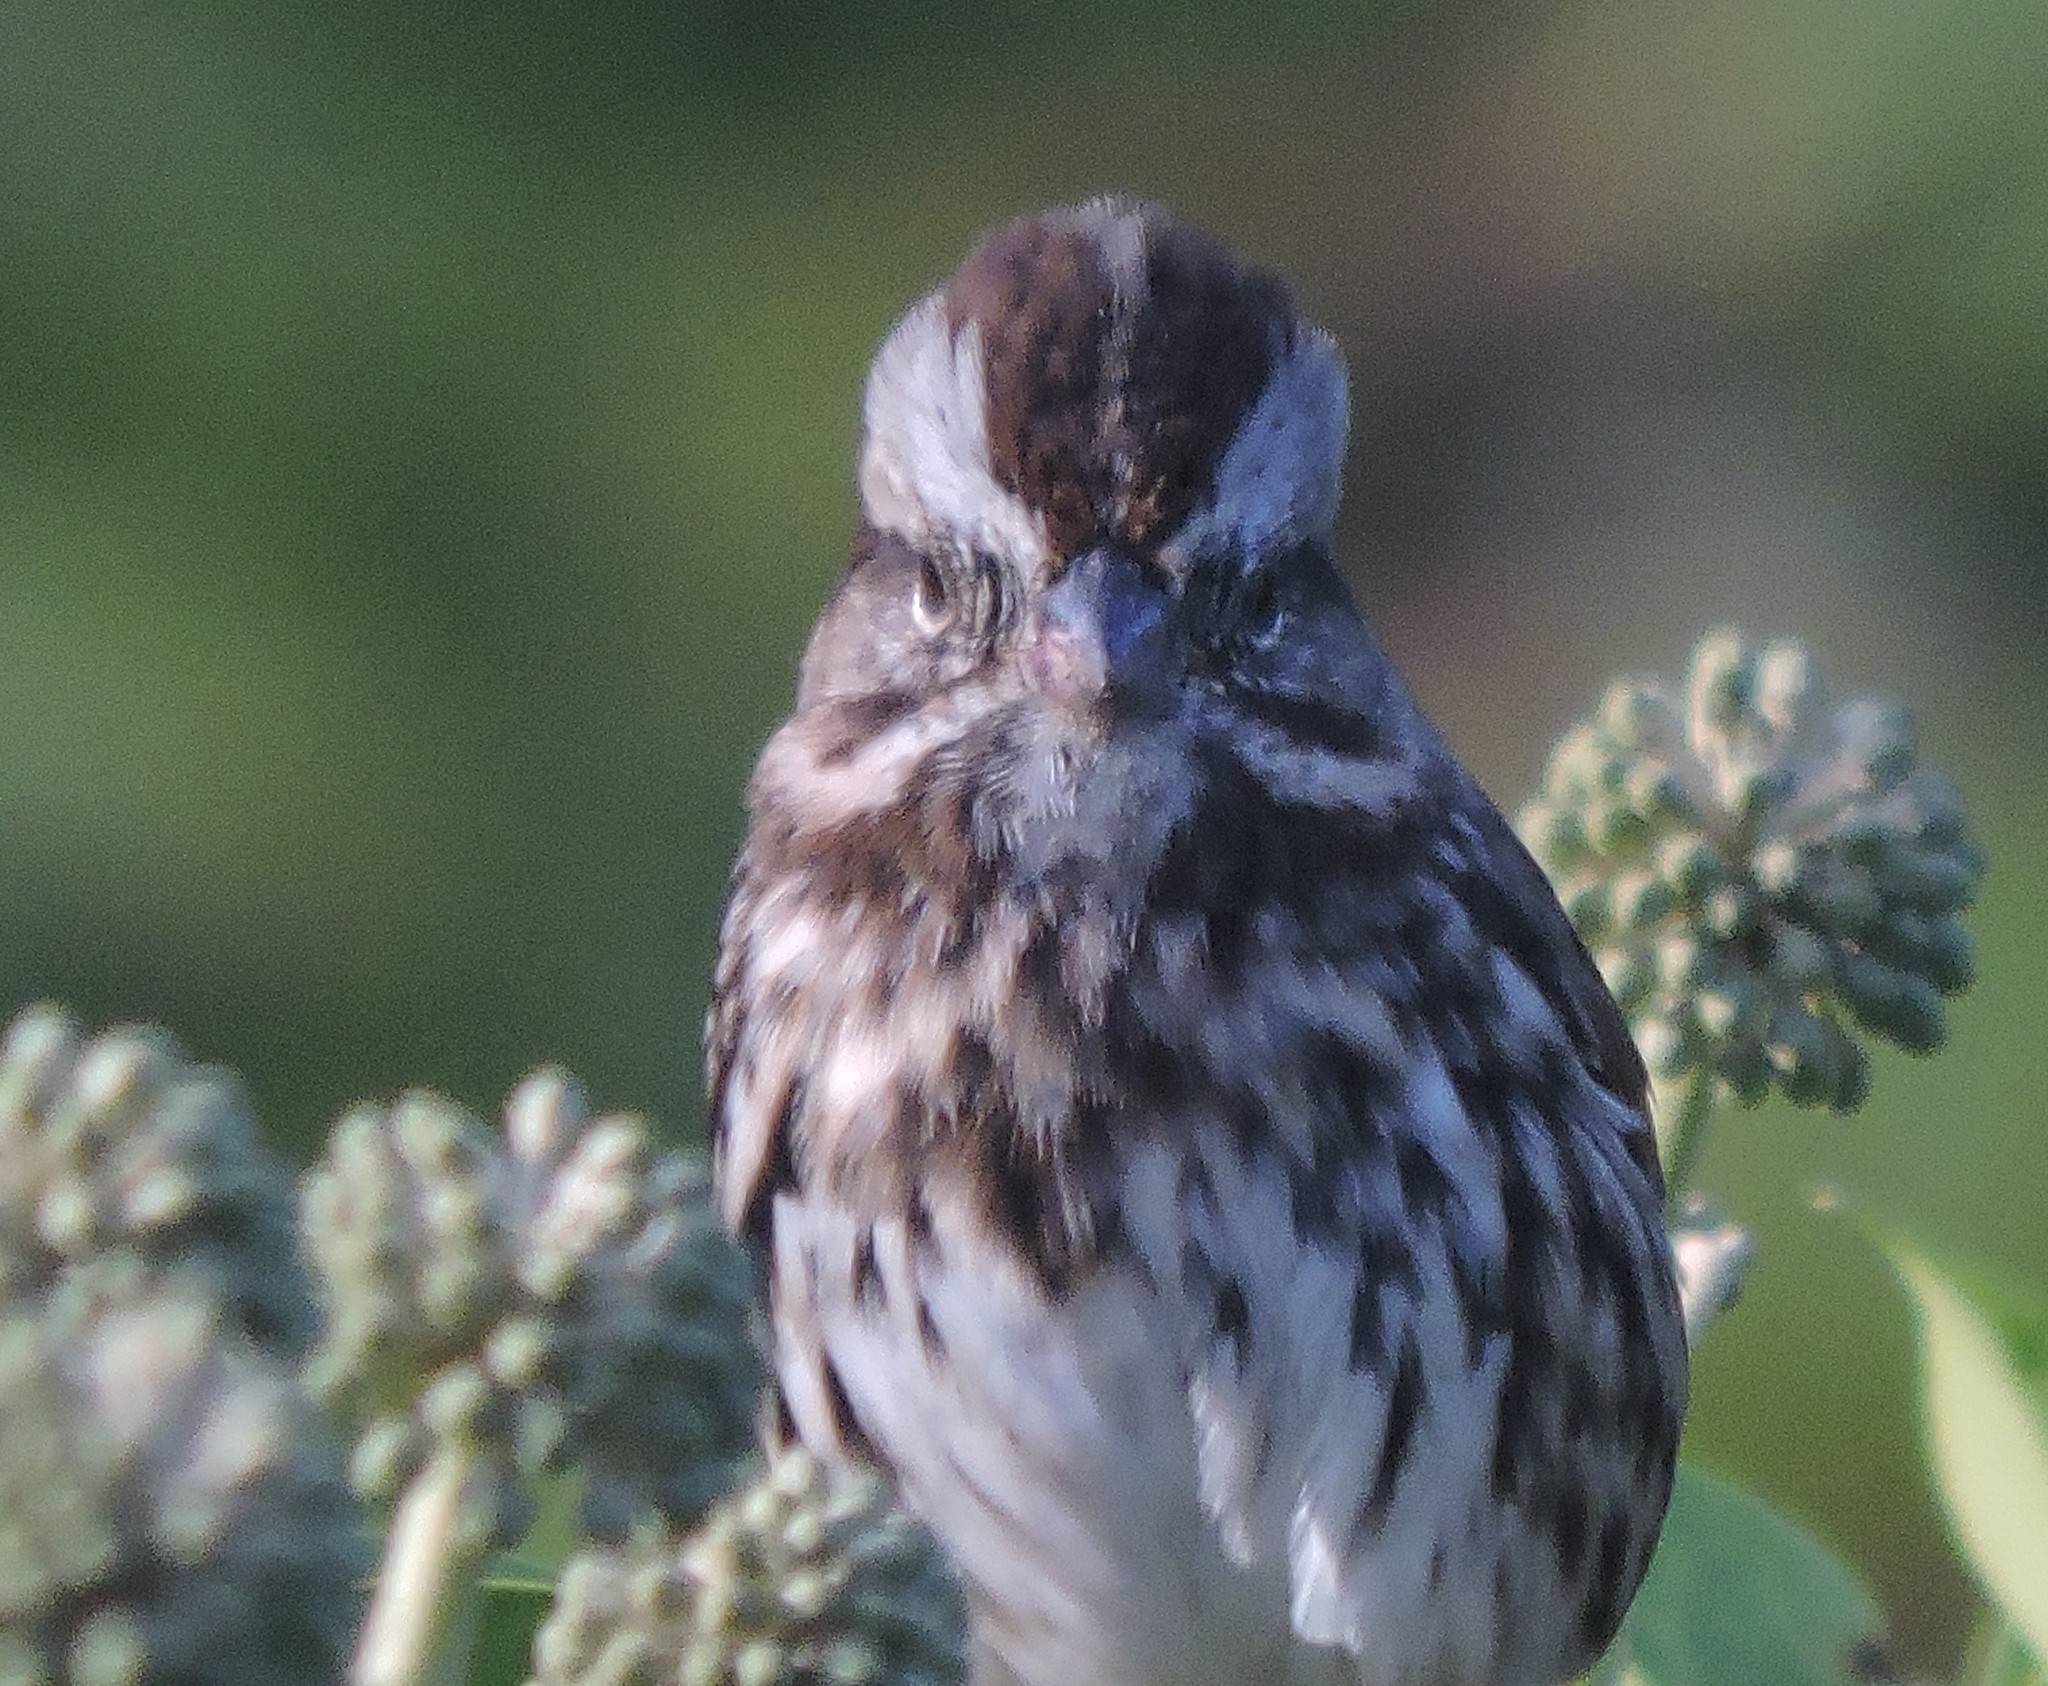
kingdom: Animalia
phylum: Chordata
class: Aves
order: Passeriformes
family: Passerellidae
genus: Melospiza
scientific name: Melospiza melodia
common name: Song sparrow
